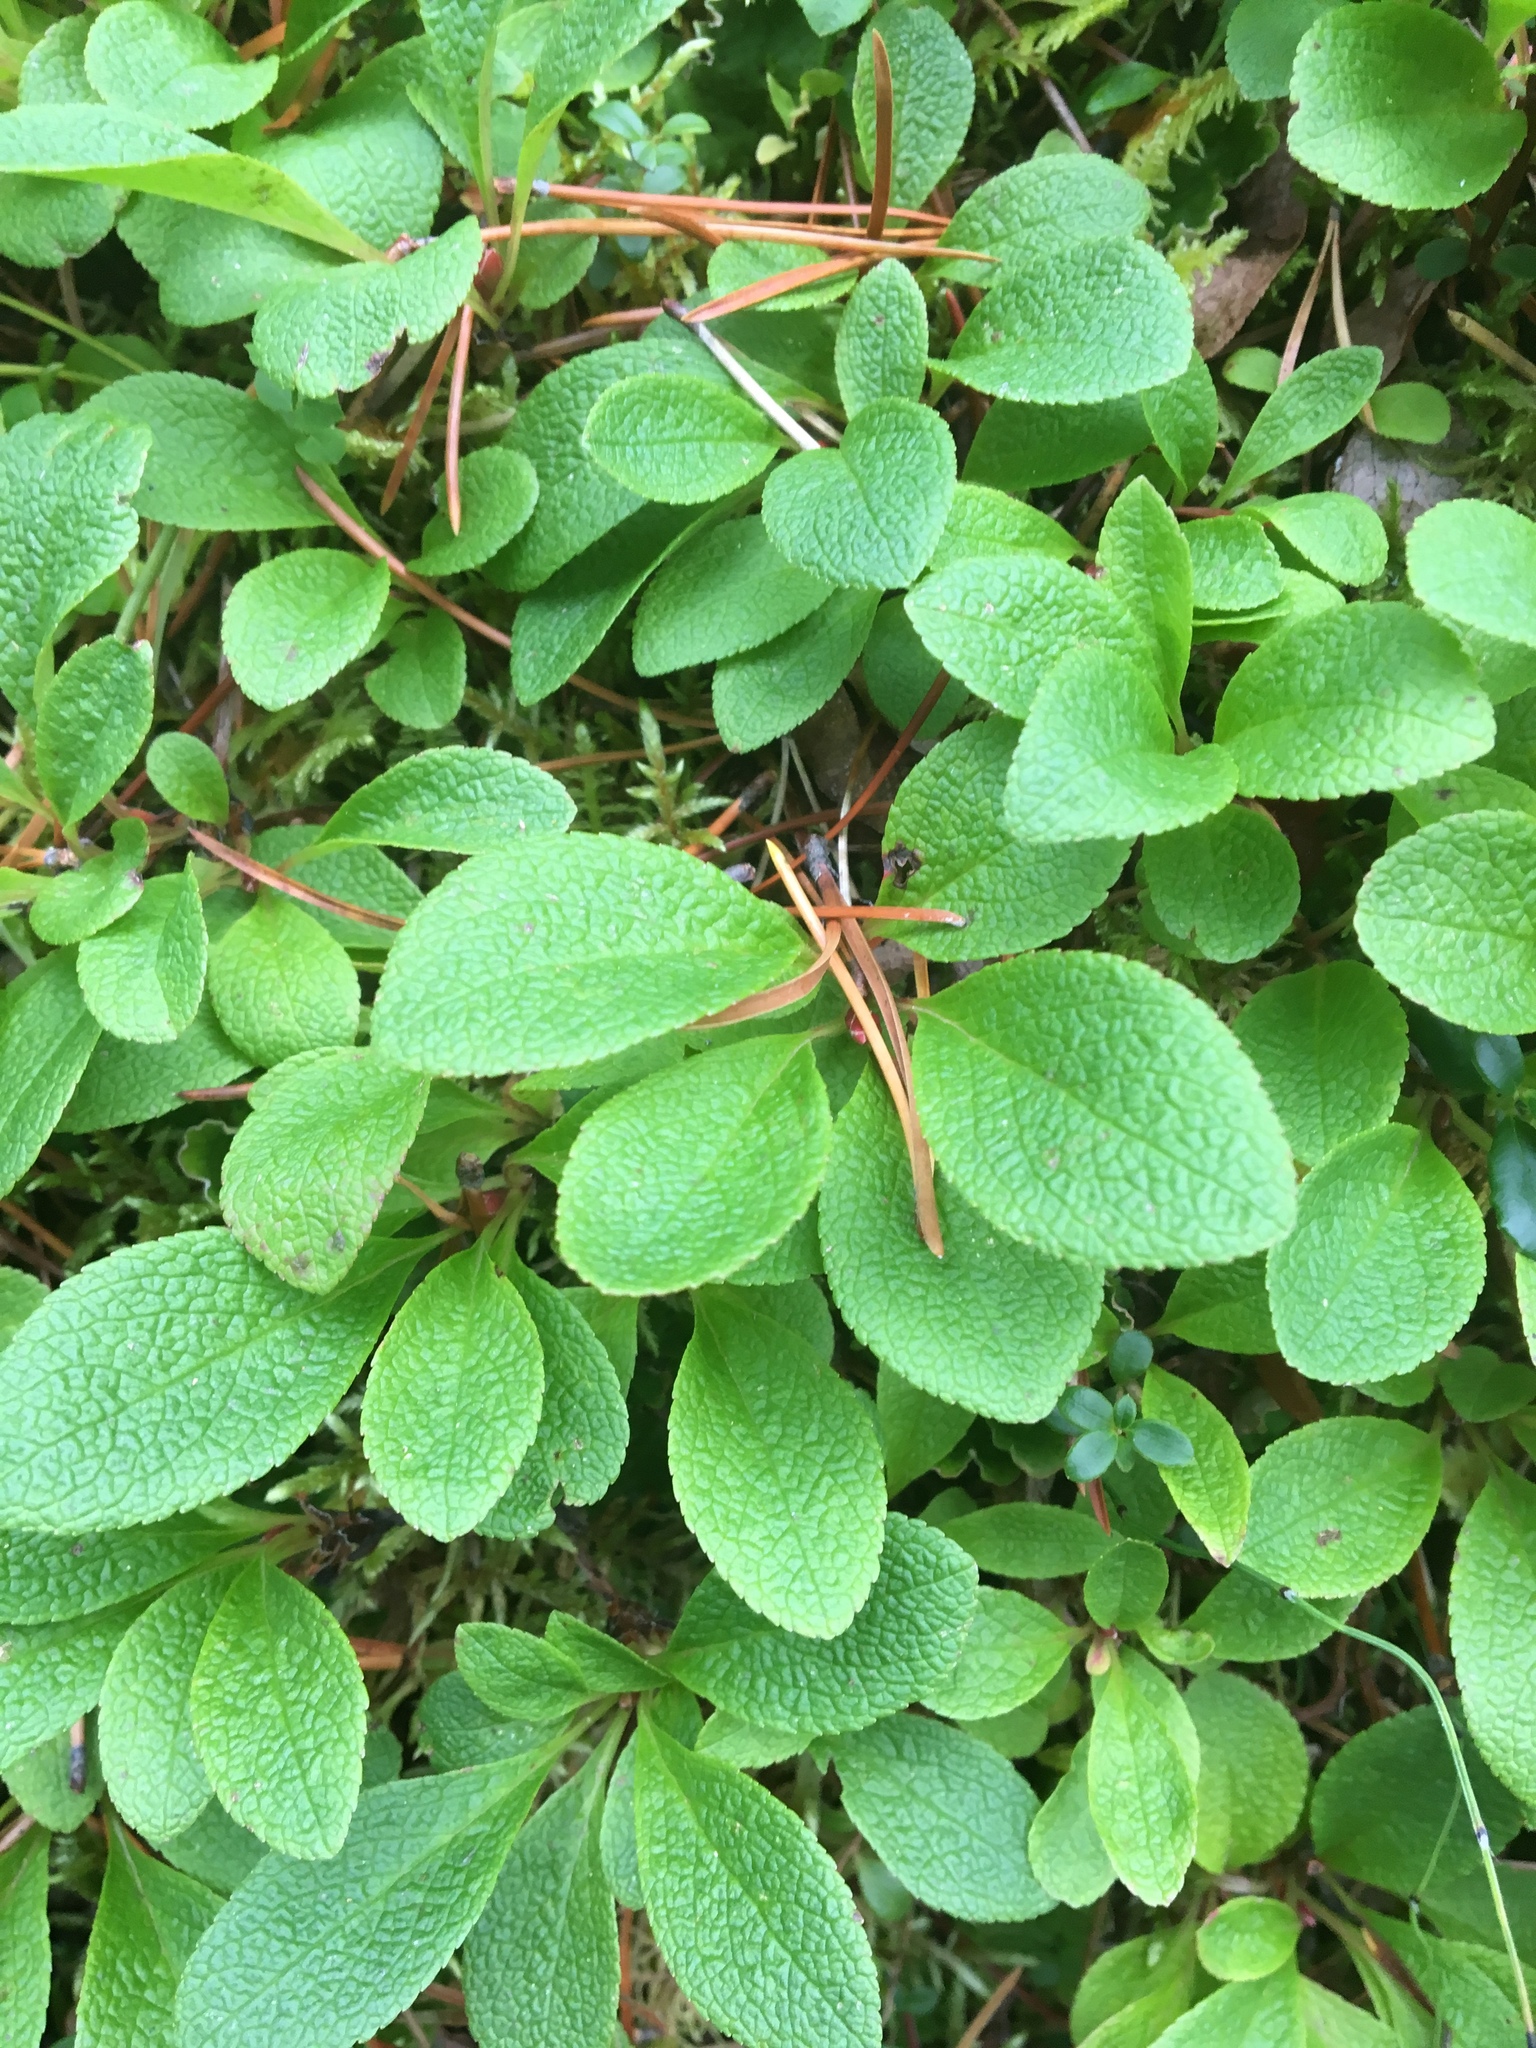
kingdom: Plantae
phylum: Tracheophyta
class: Magnoliopsida
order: Ericales
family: Ericaceae
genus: Arctostaphylos
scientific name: Arctostaphylos rubra
